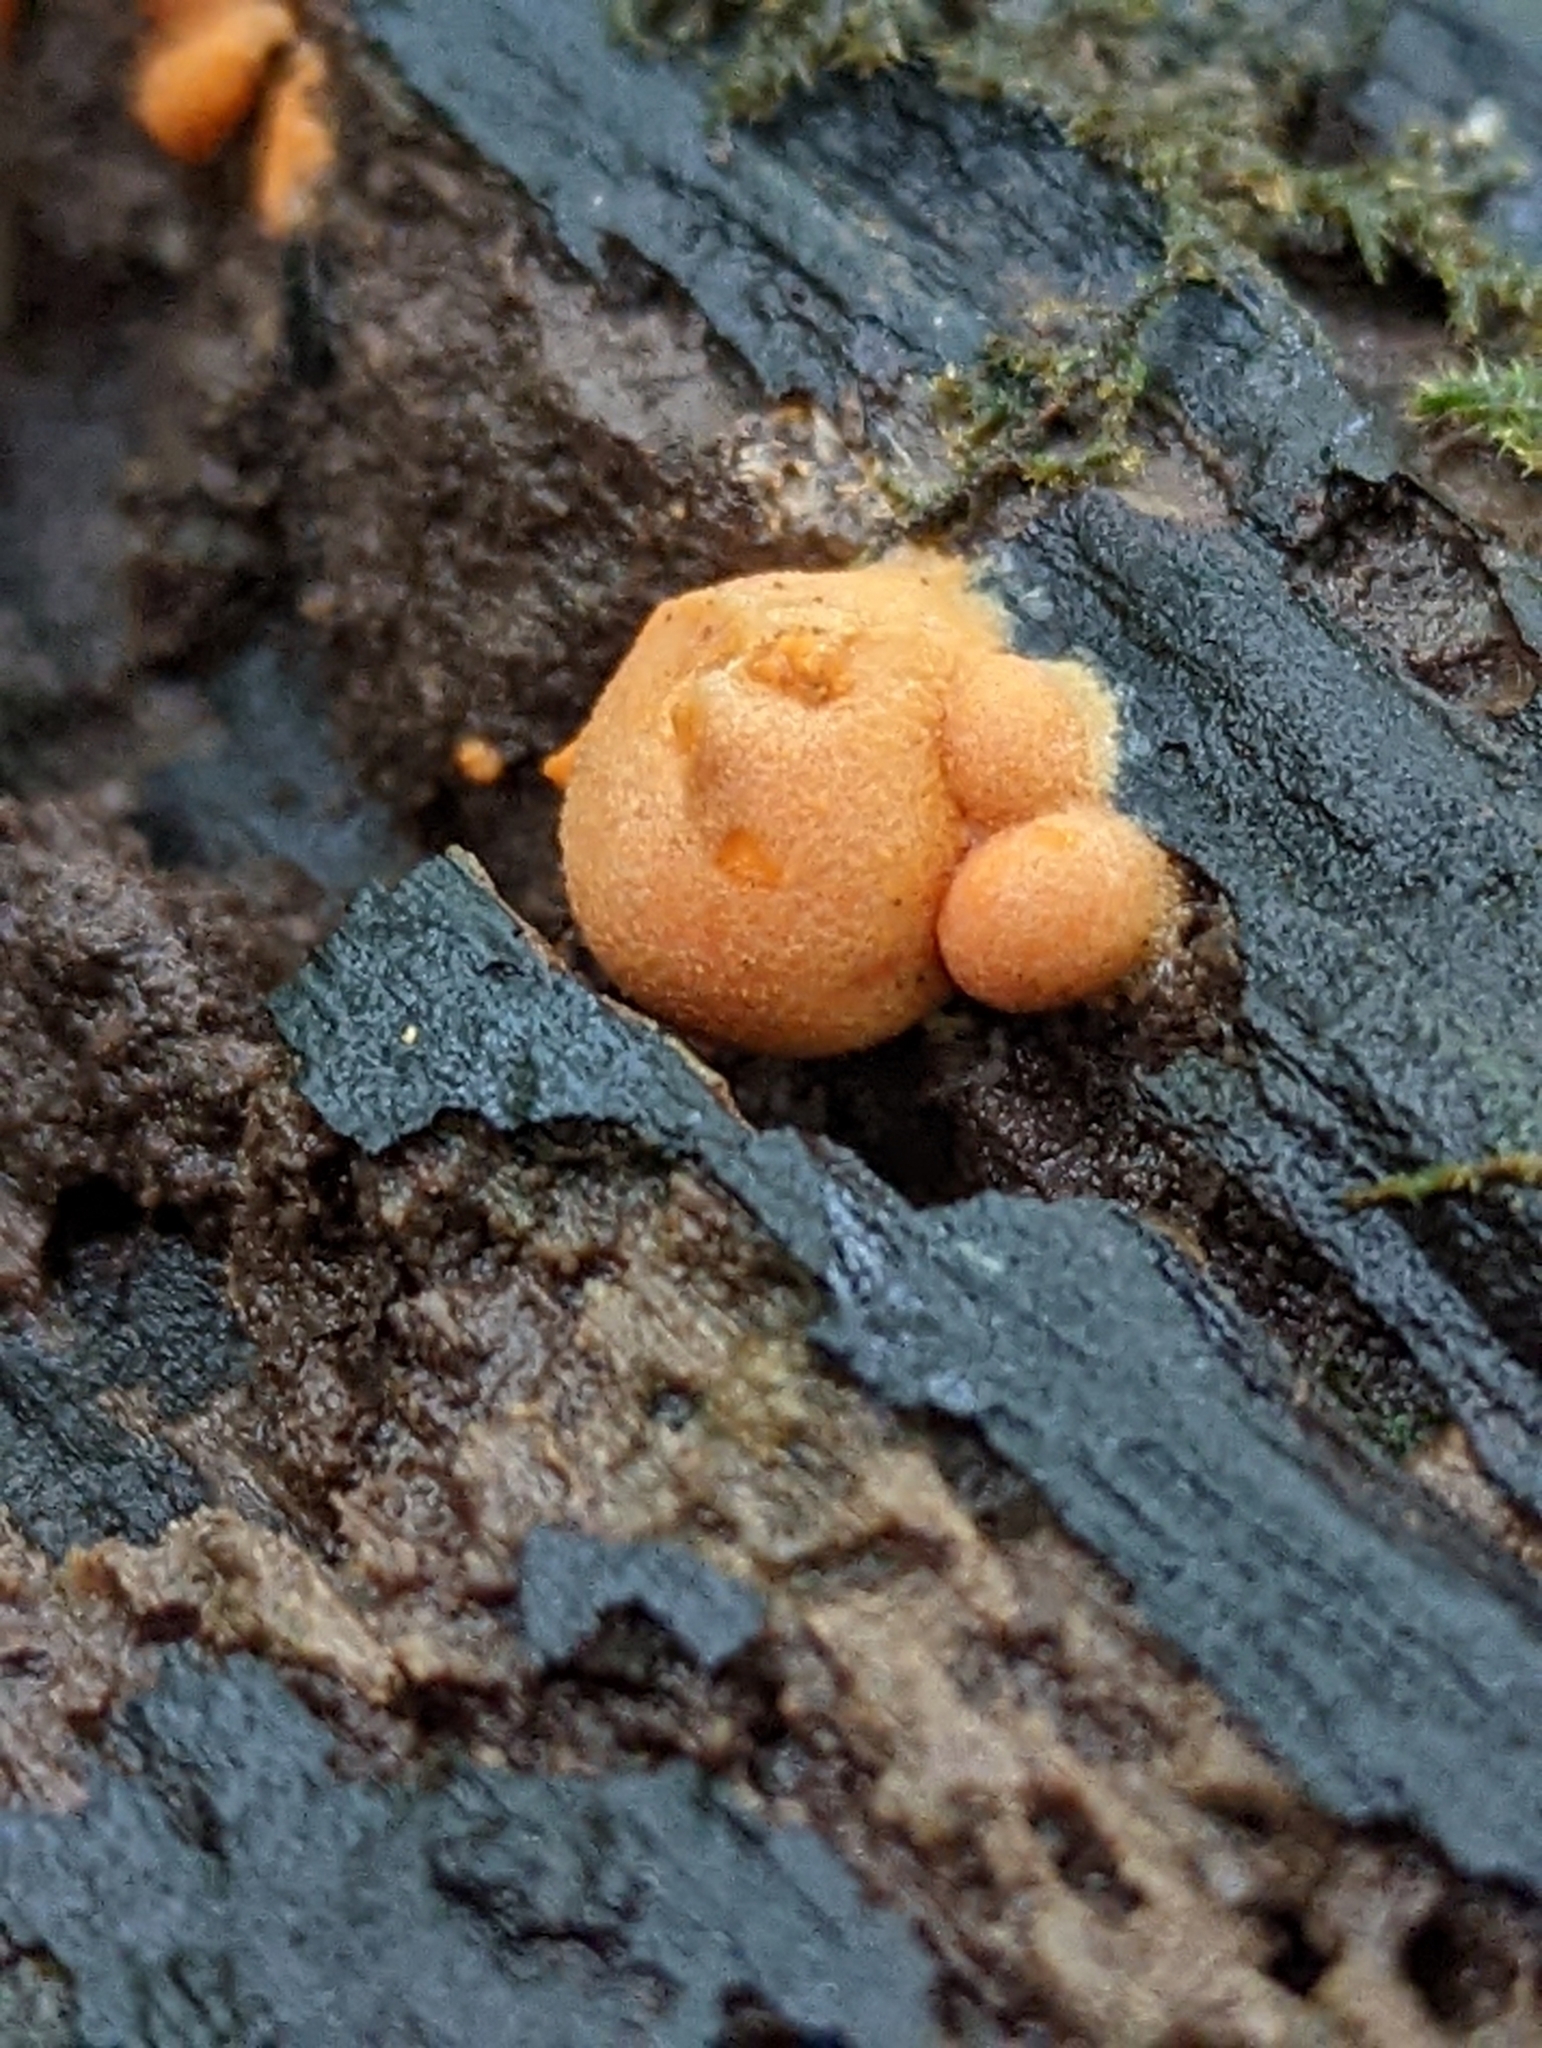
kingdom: Protozoa
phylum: Mycetozoa
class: Myxomycetes
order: Cribrariales
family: Tubiferaceae
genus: Lycogala
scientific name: Lycogala epidendrum
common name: Wolf's milk
